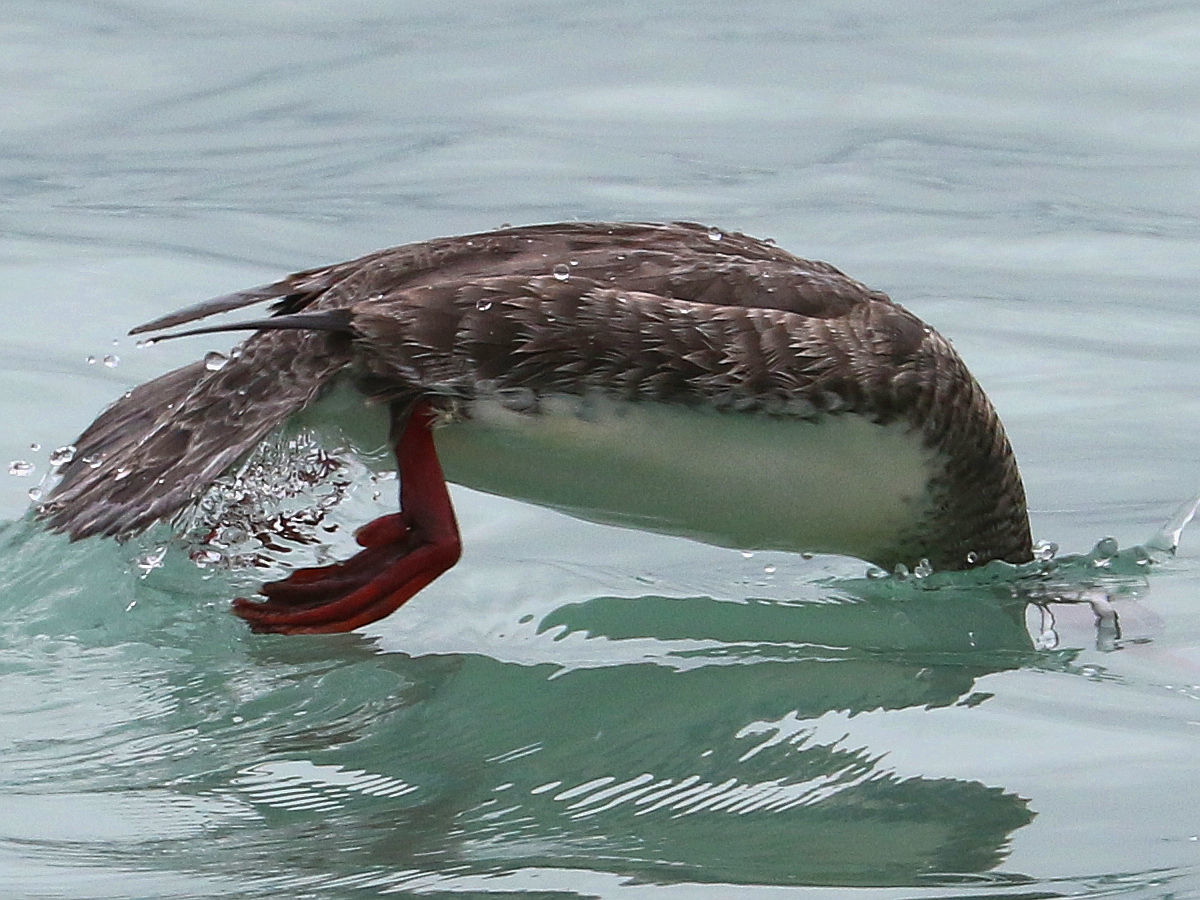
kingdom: Animalia
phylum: Chordata
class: Aves
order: Anseriformes
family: Anatidae
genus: Mergus
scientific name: Mergus serrator
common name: Red-breasted merganser
